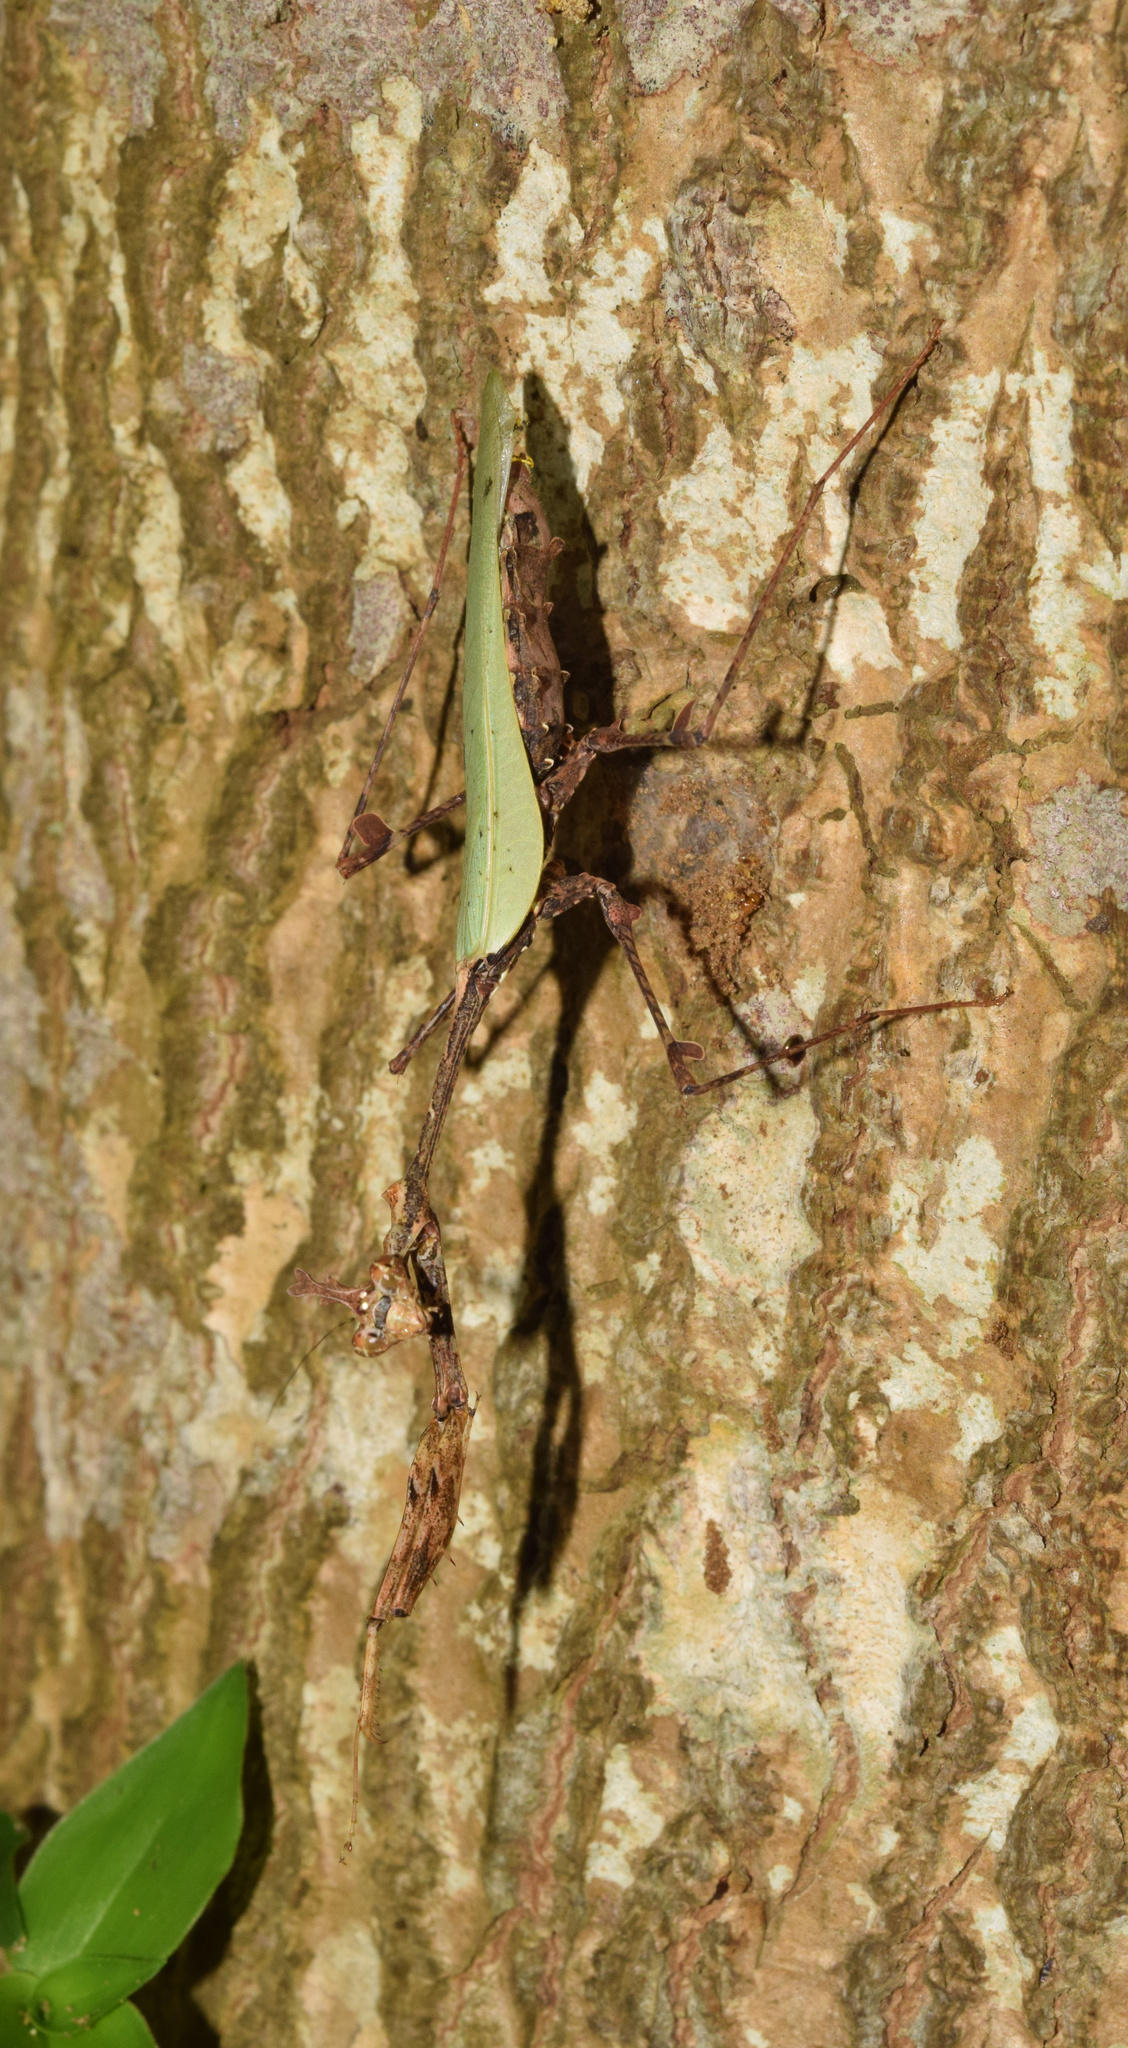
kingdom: Animalia
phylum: Arthropoda
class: Insecta
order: Mantodea
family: Hymenopodidae
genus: Sibylla
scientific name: Sibylla pretiosa
